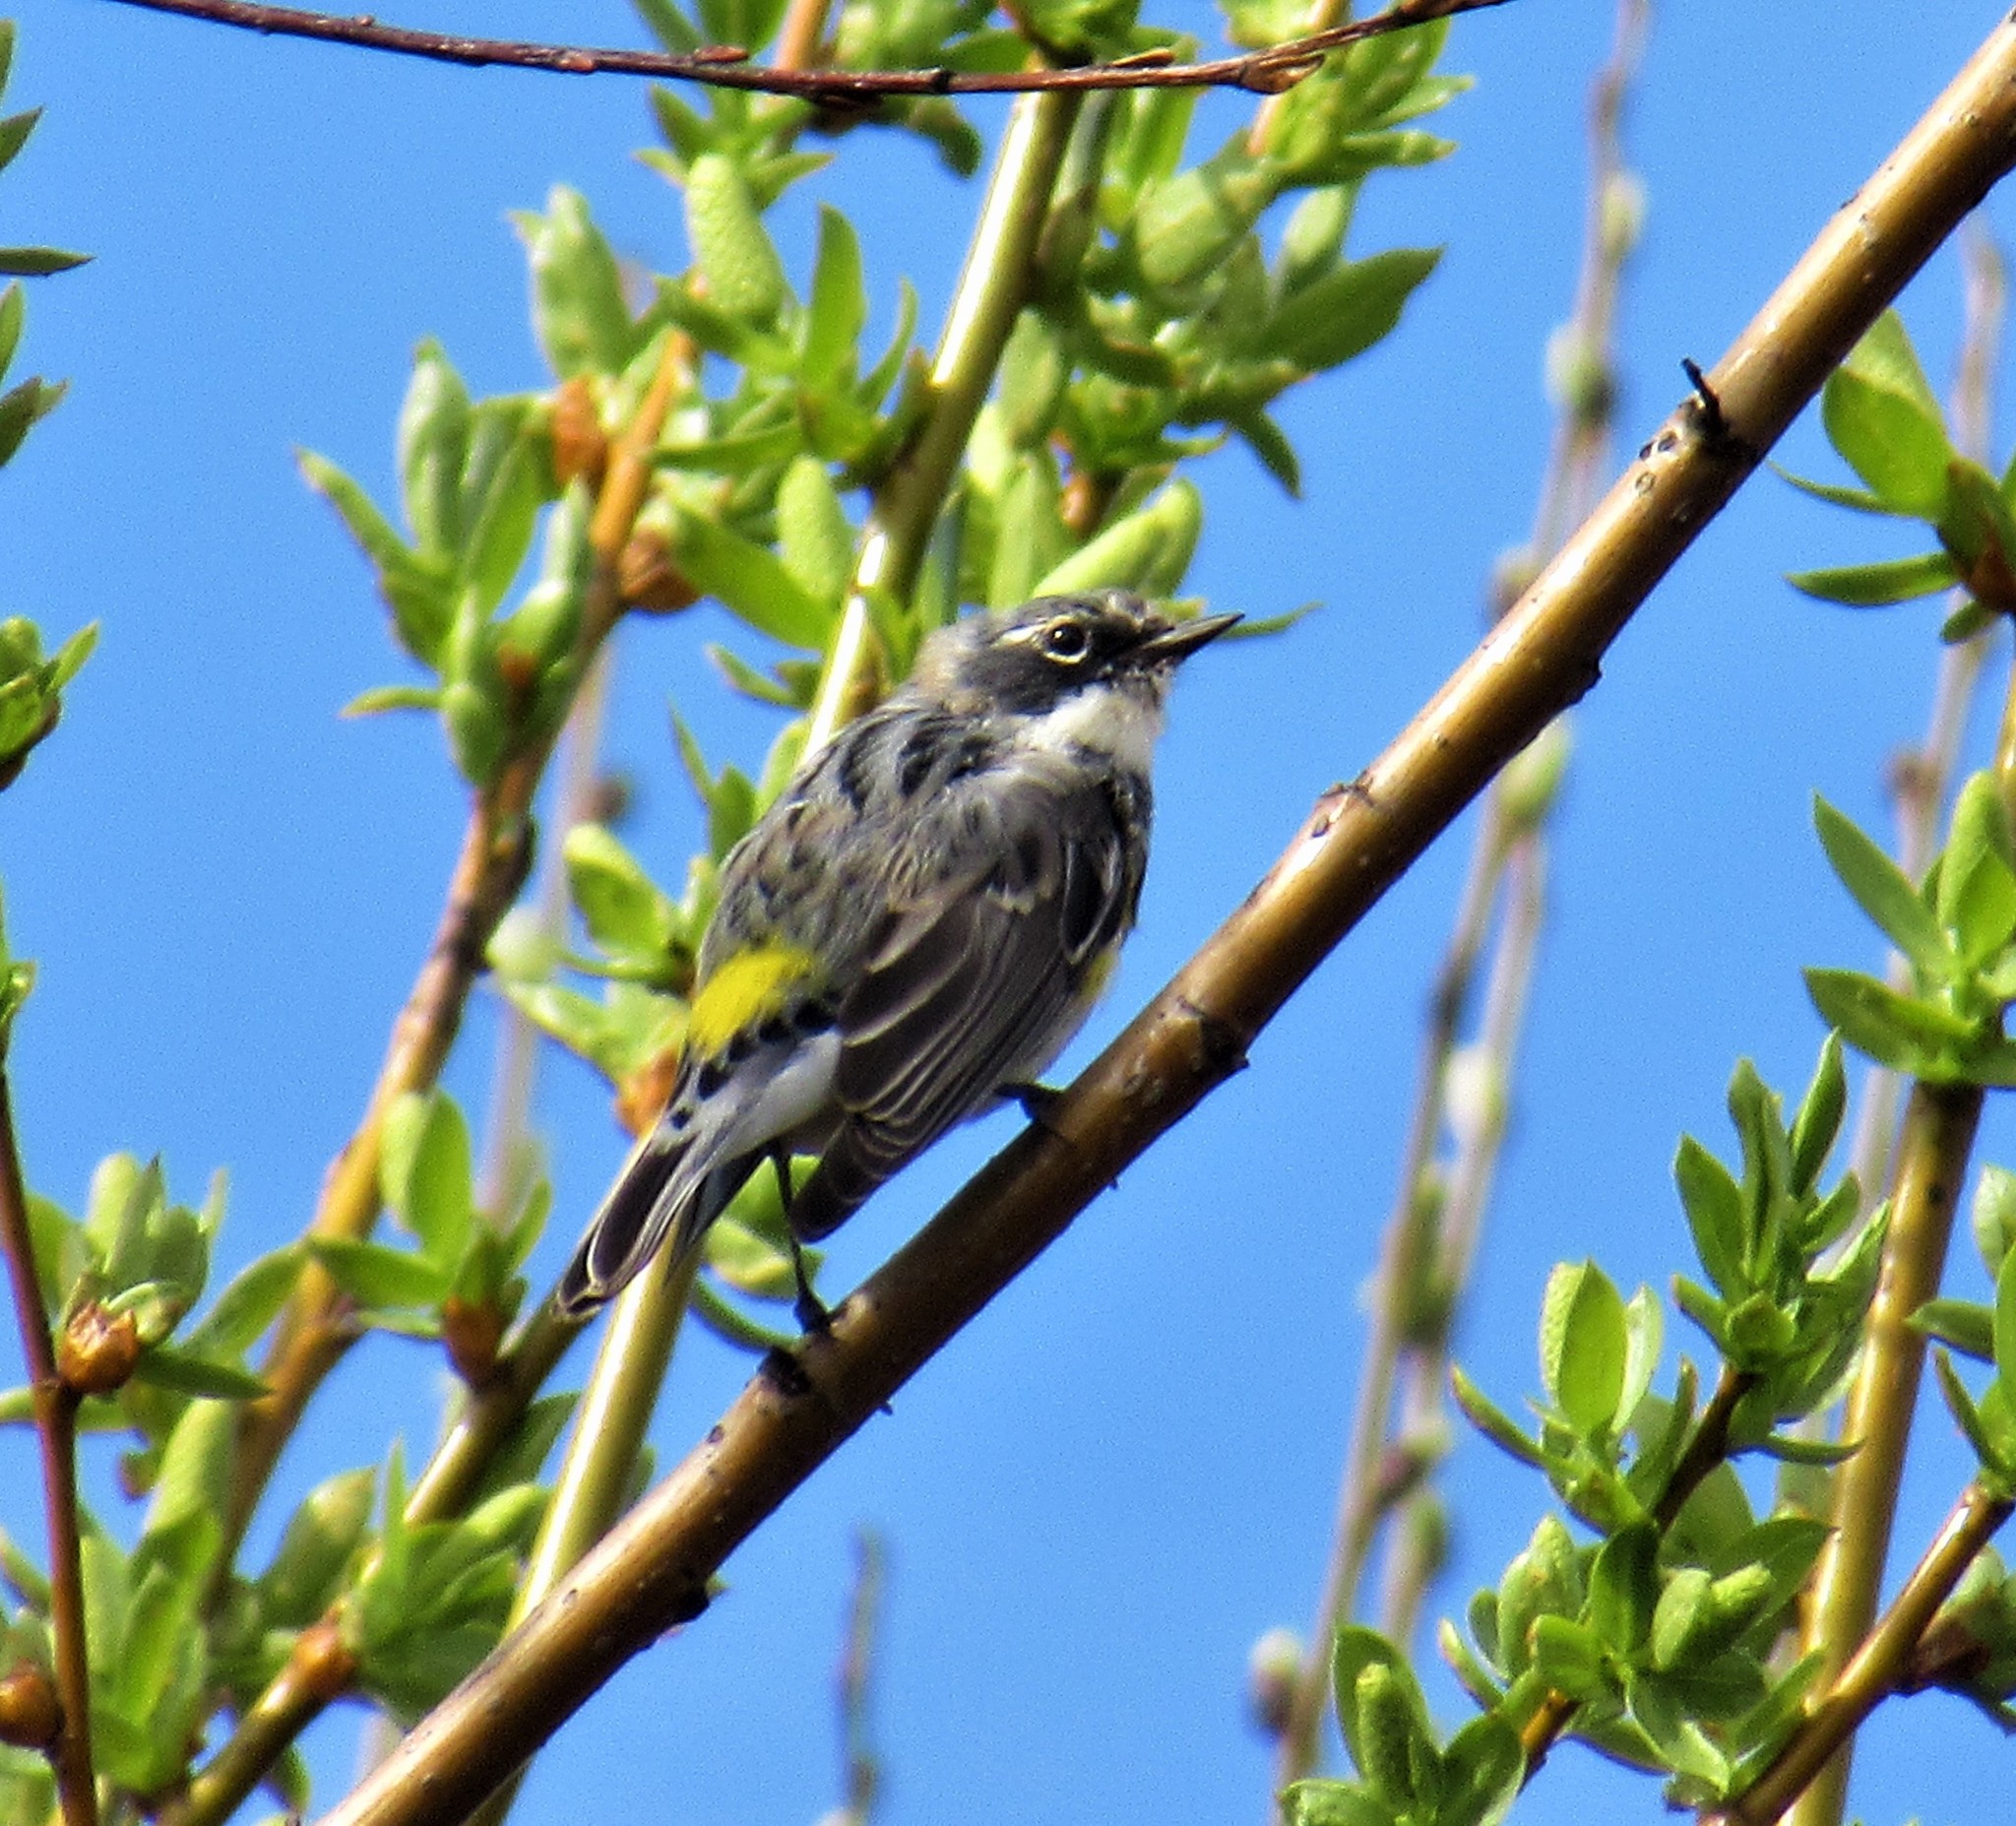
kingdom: Animalia
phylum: Chordata
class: Aves
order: Passeriformes
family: Parulidae
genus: Setophaga
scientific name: Setophaga coronata
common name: Myrtle warbler
